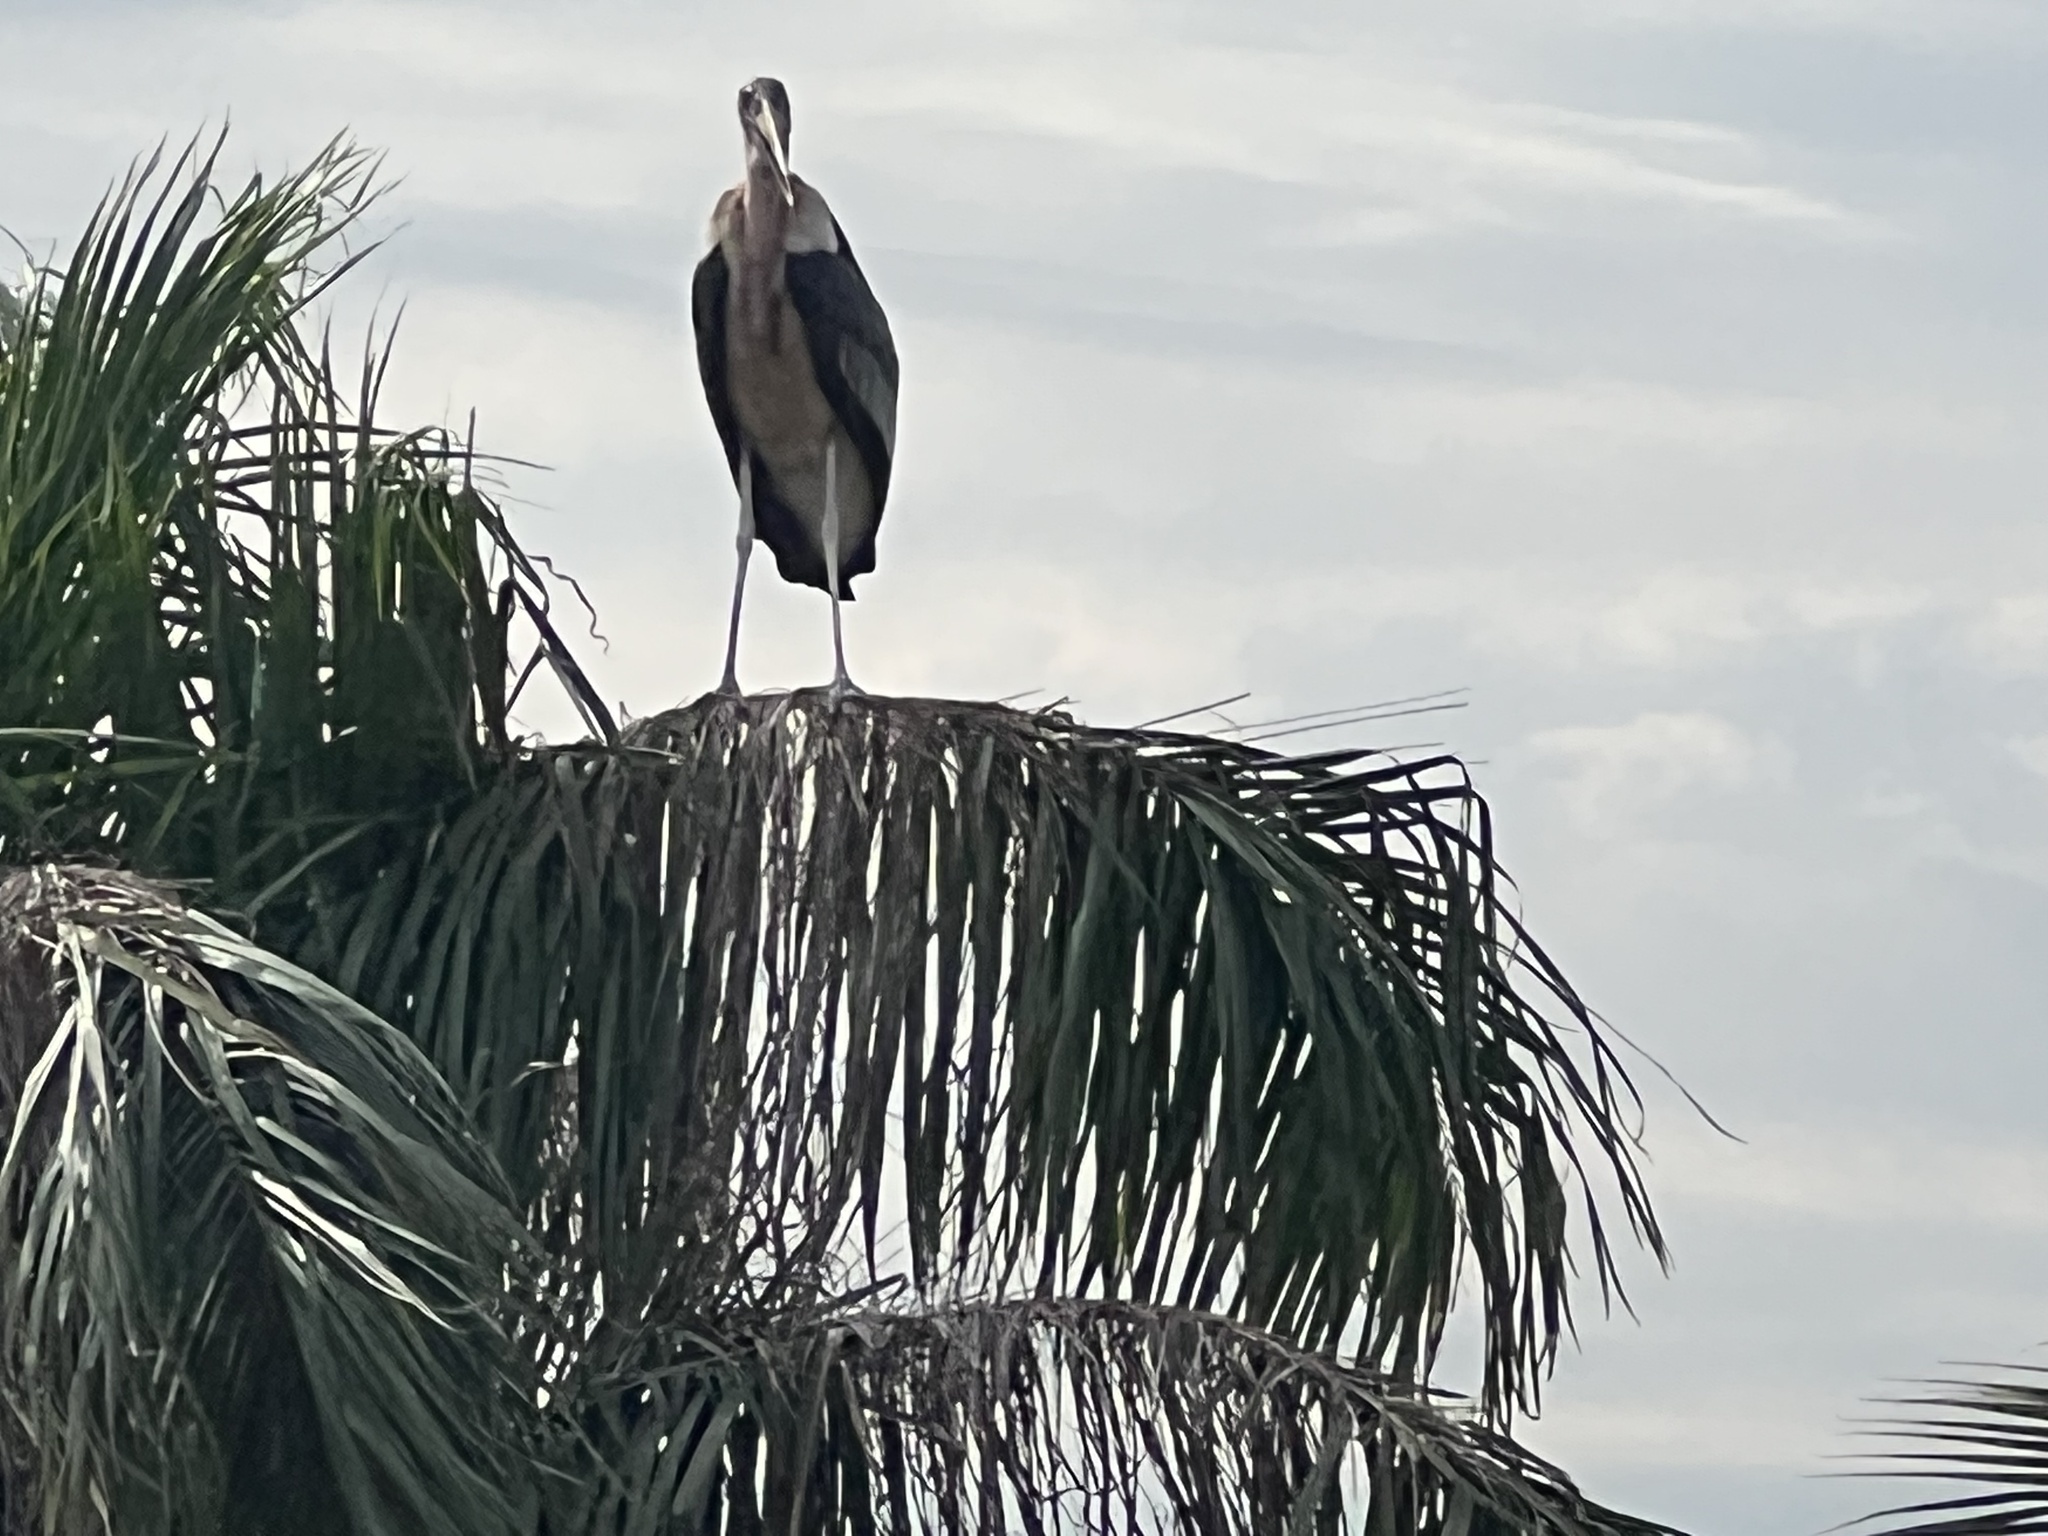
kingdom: Animalia
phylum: Chordata
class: Aves
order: Ciconiiformes
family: Ciconiidae
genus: Leptoptilos
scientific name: Leptoptilos crumenifer
